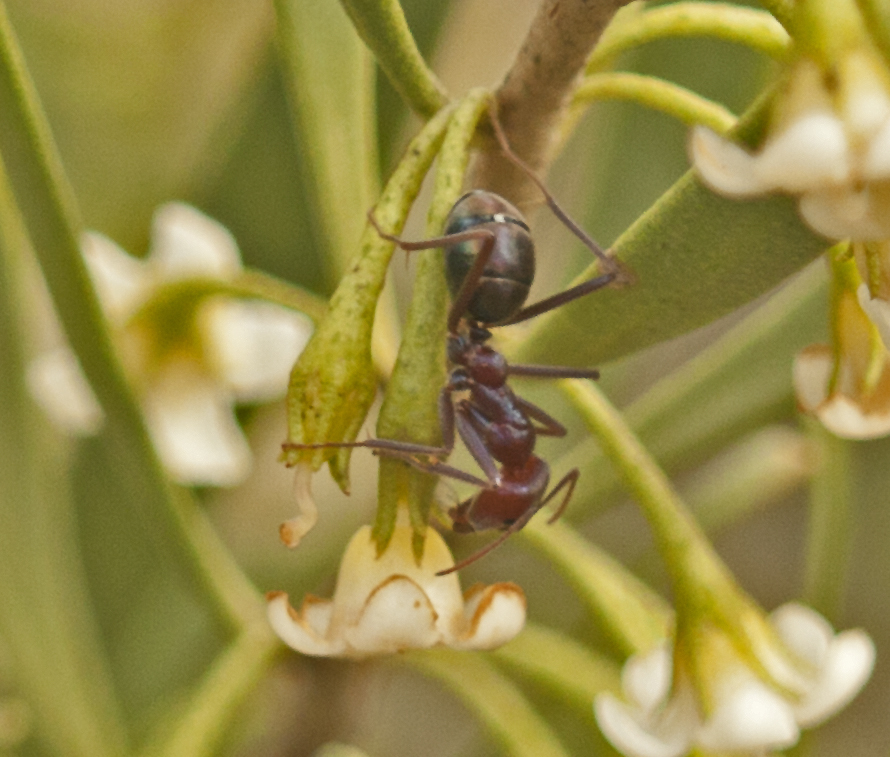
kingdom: Animalia
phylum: Arthropoda
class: Insecta
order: Hymenoptera
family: Formicidae
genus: Iridomyrmex
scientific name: Iridomyrmex purpureus
